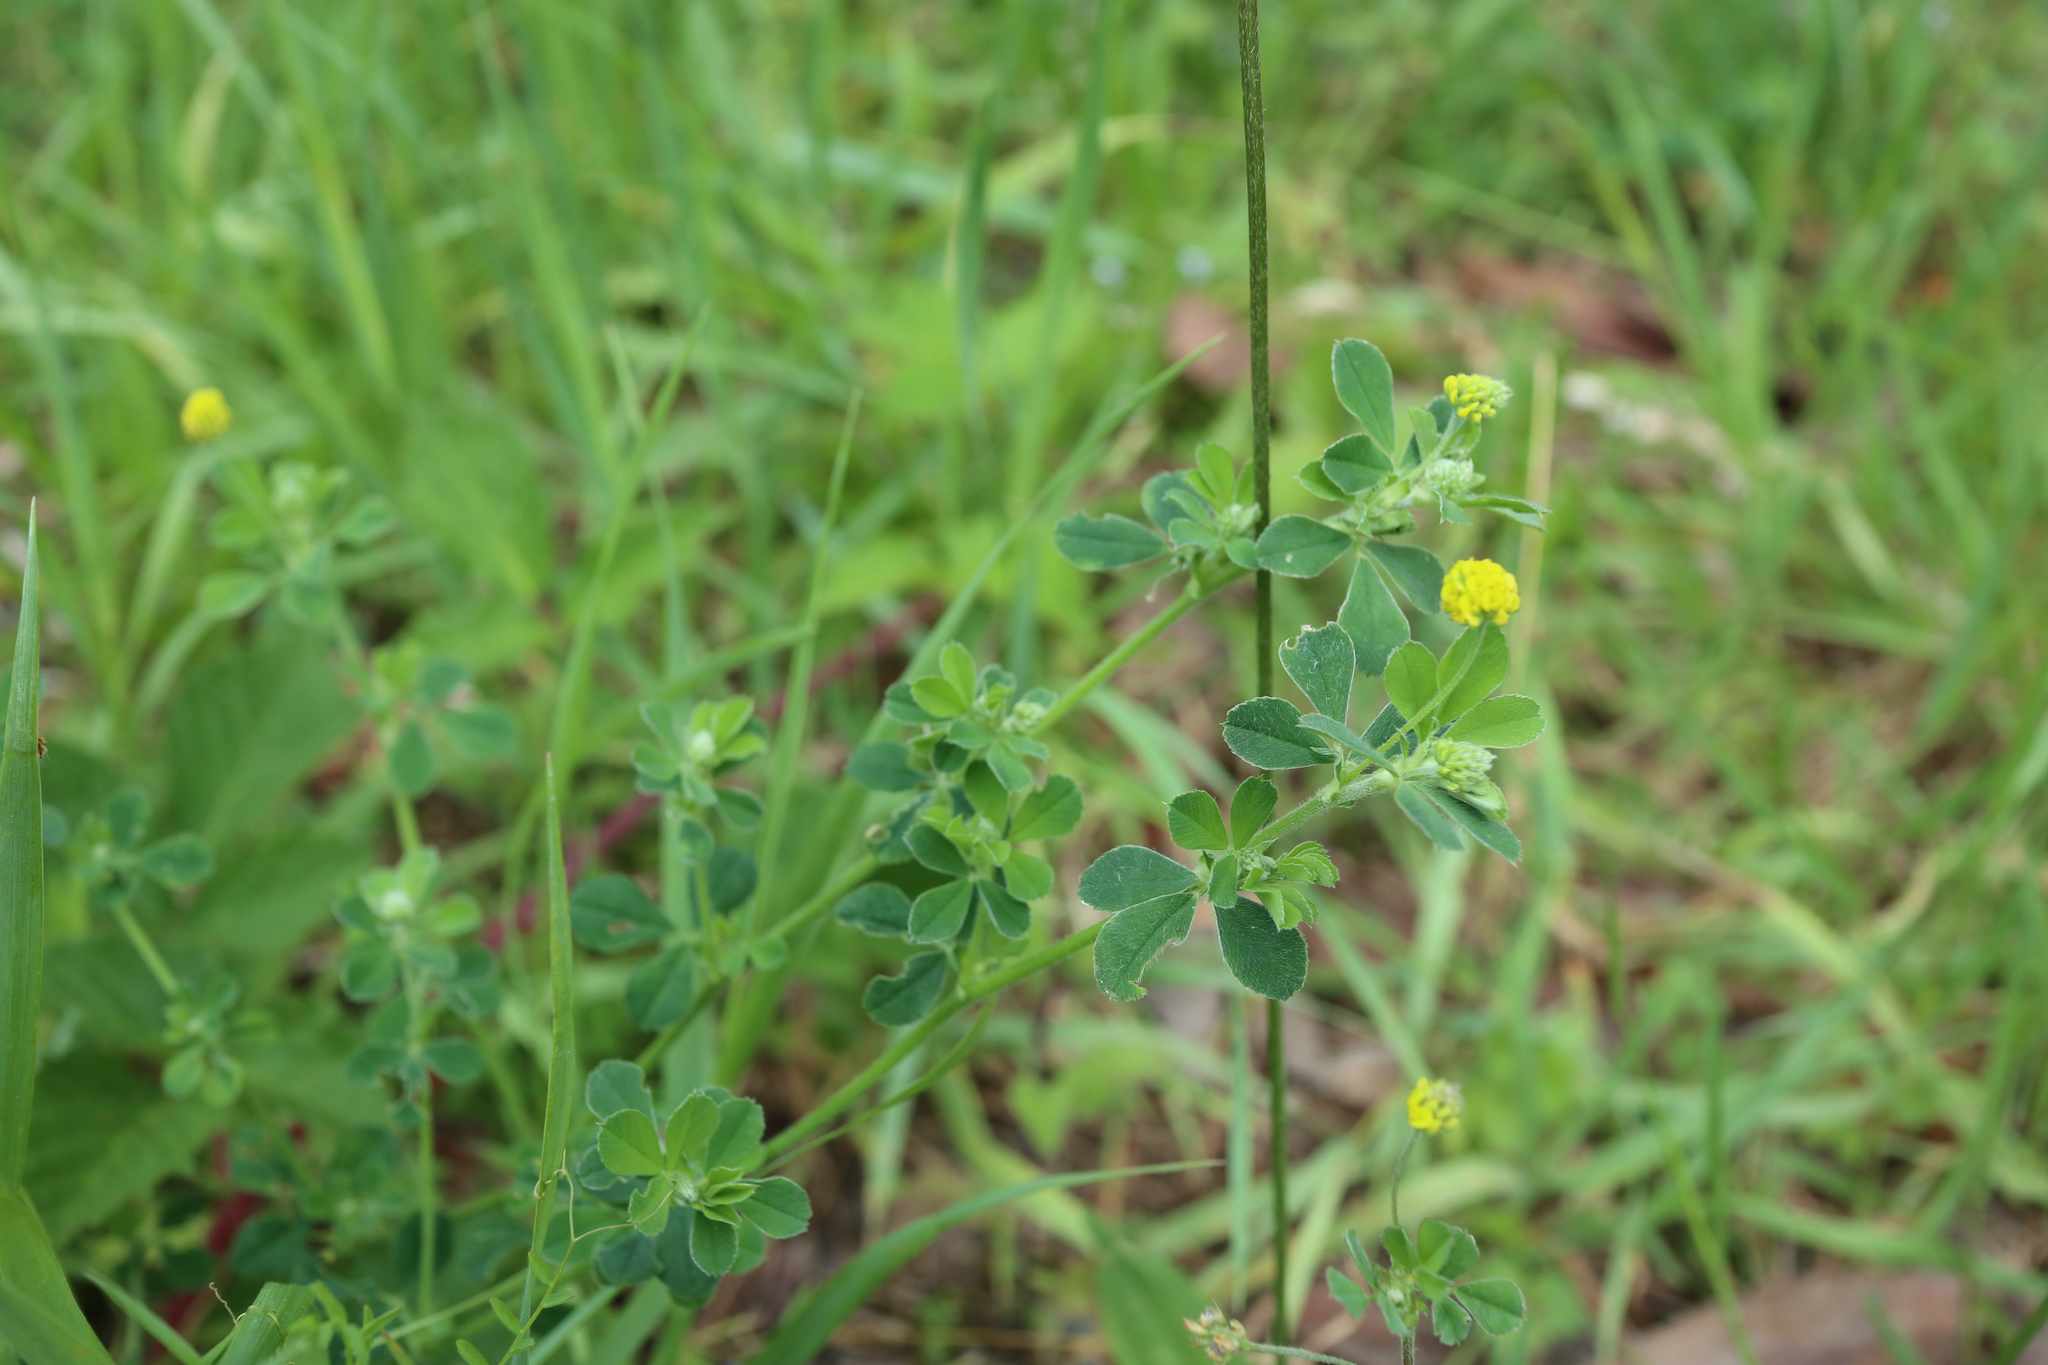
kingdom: Plantae
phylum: Tracheophyta
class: Magnoliopsida
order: Fabales
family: Fabaceae
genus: Medicago
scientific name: Medicago lupulina
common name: Black medick
